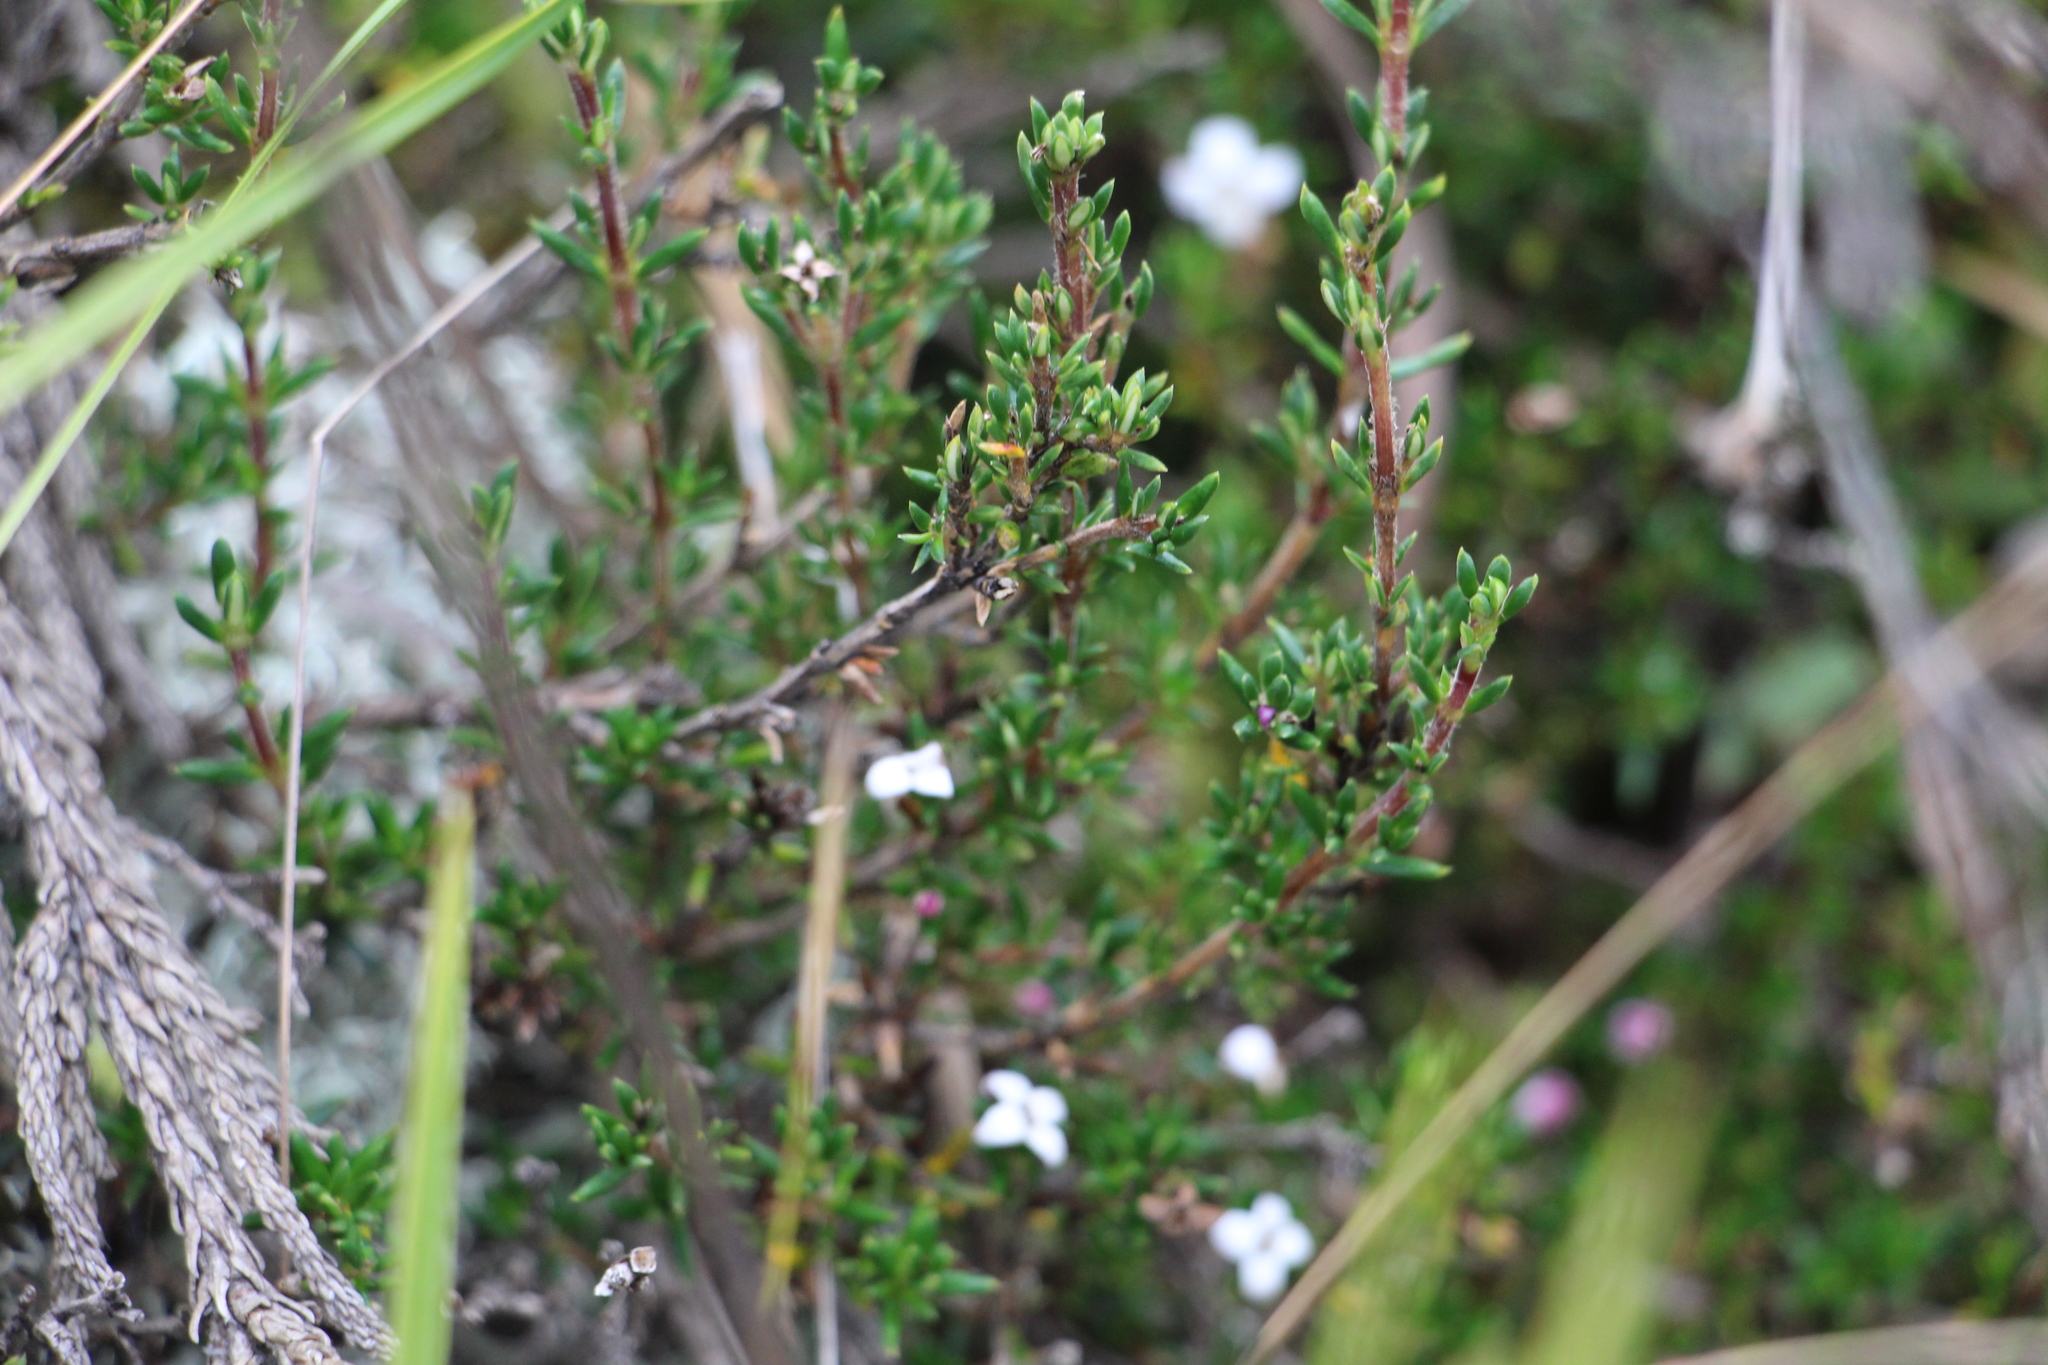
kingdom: Plantae
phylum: Tracheophyta
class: Magnoliopsida
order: Gentianales
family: Rubiaceae
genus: Arcytophyllum
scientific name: Arcytophyllum nitidum
